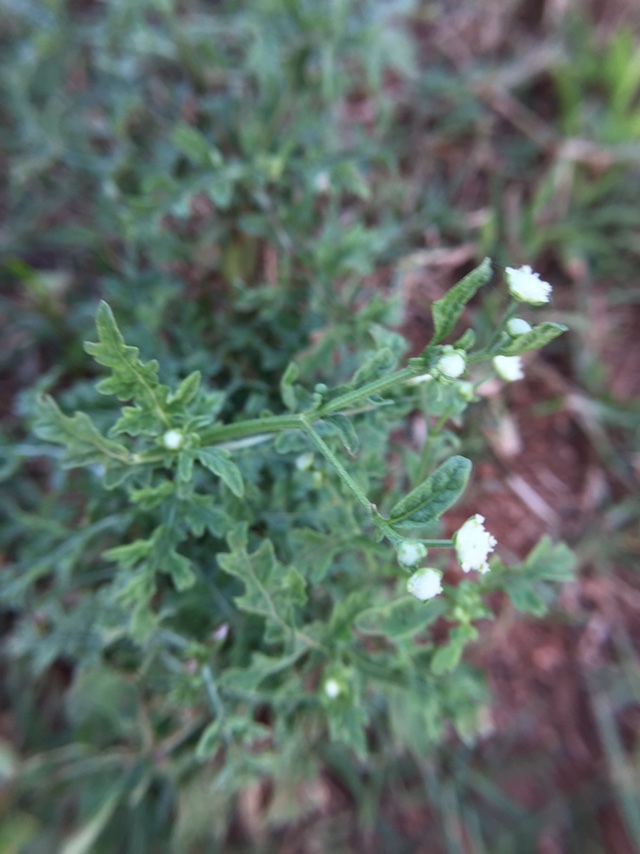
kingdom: Plantae
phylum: Tracheophyta
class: Magnoliopsida
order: Asterales
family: Asteraceae
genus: Parthenium
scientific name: Parthenium hysterophorus
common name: Santa maria feverfew
